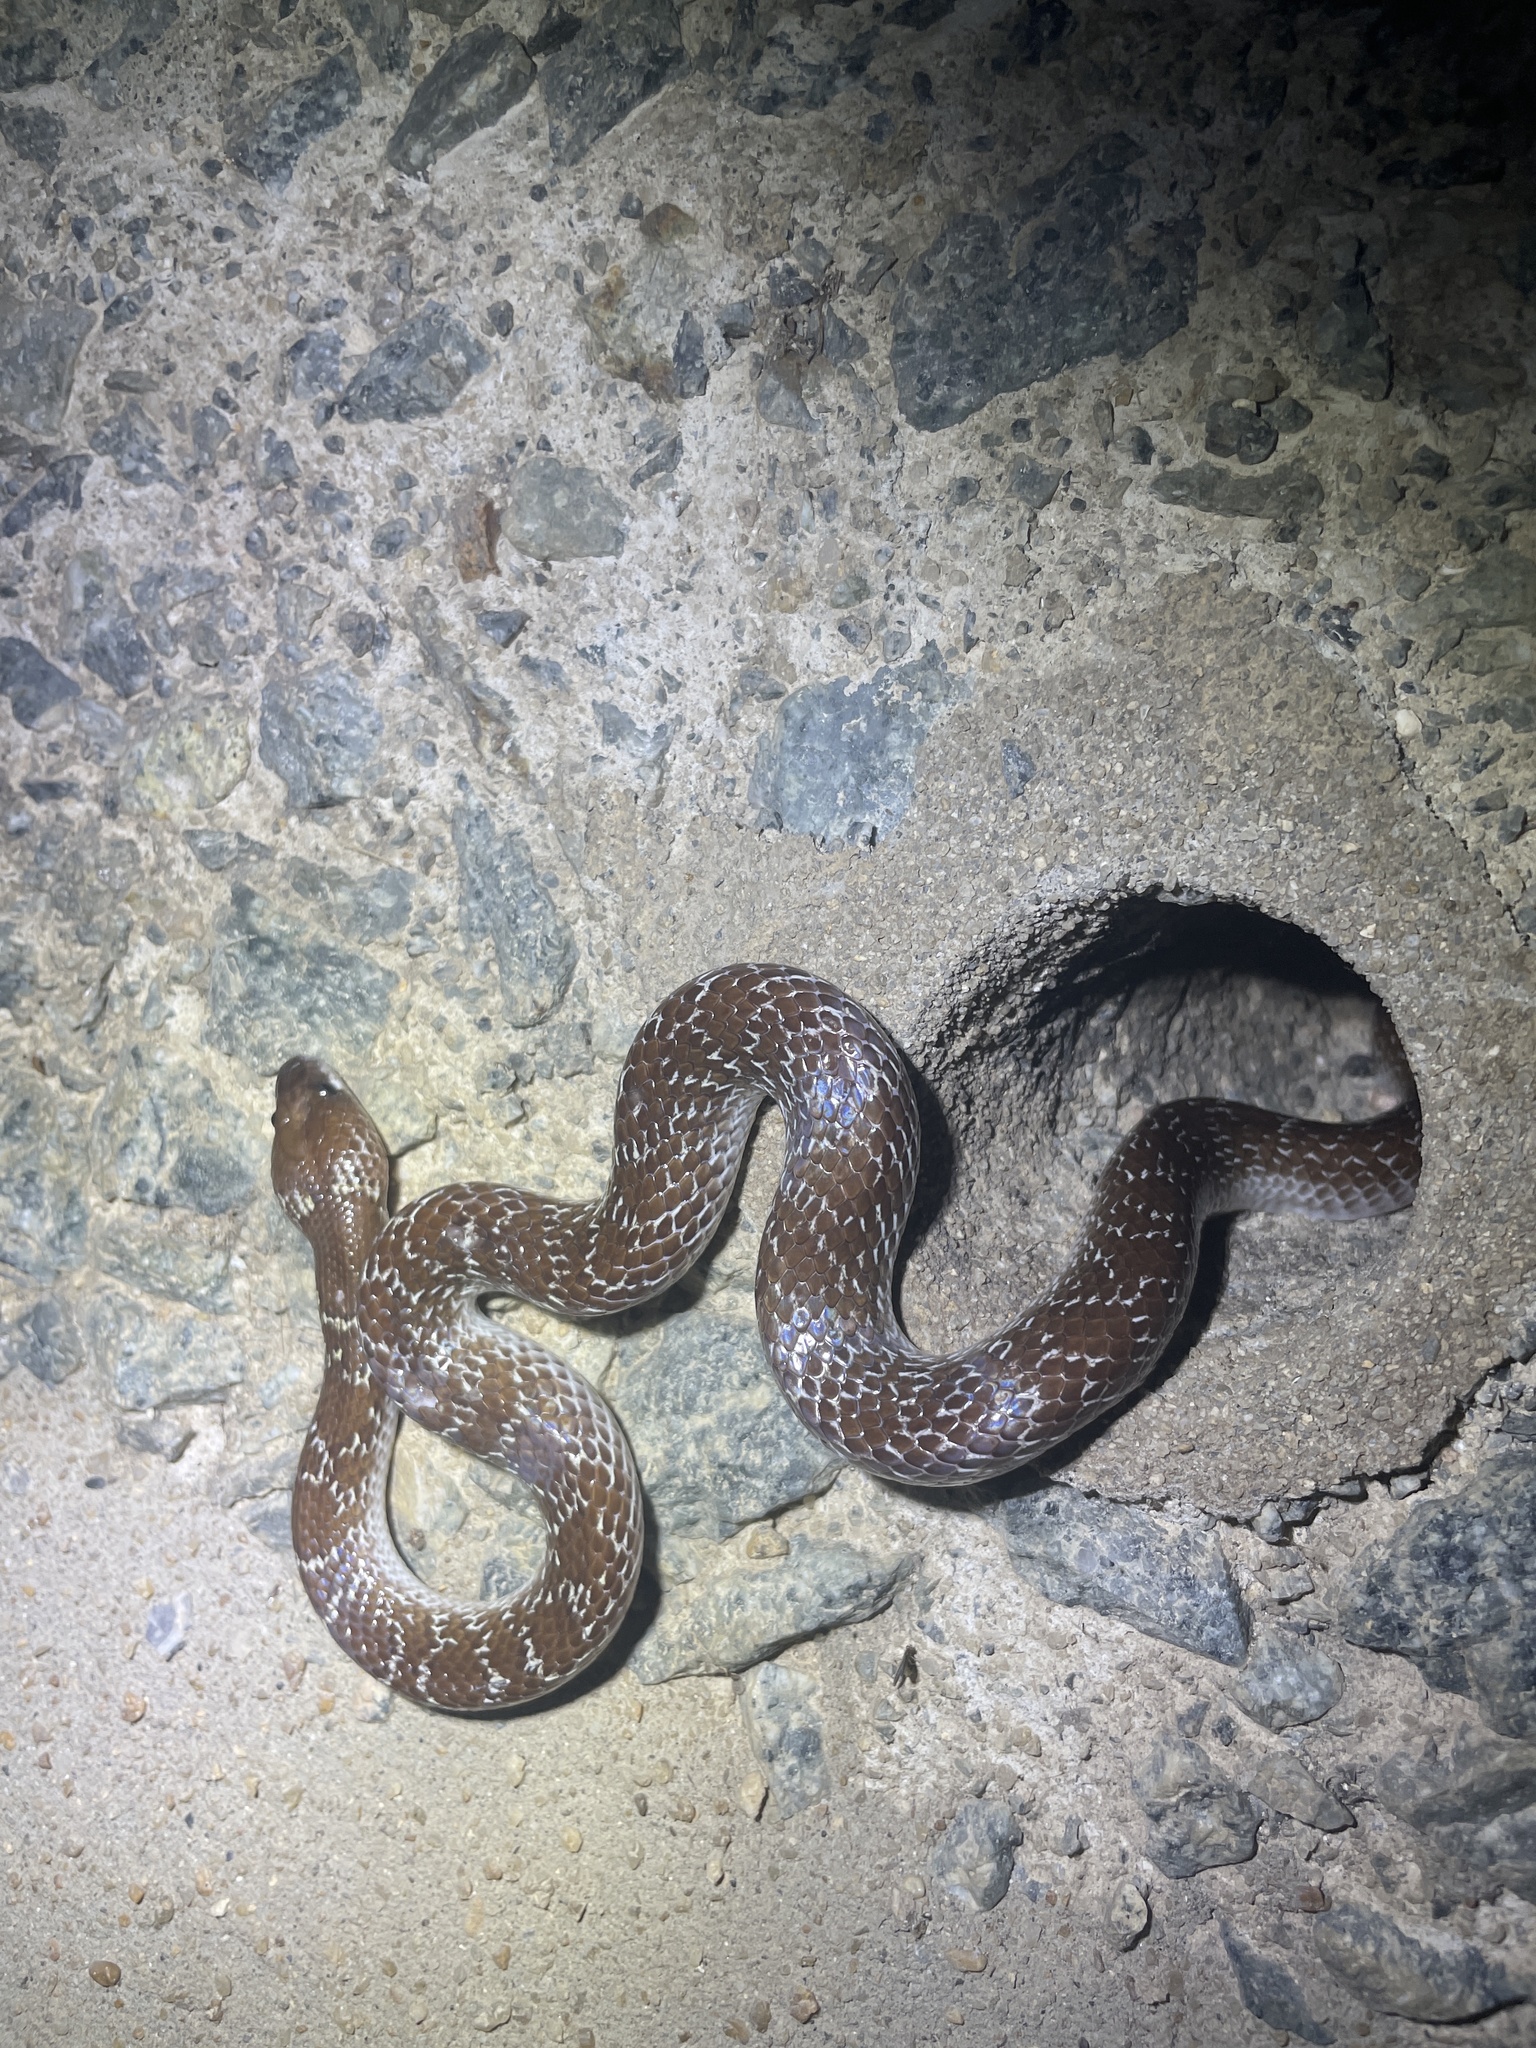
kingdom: Animalia
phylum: Chordata
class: Squamata
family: Colubridae
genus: Lycodon
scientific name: Lycodon capucinus
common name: Common wold snake/house snake
